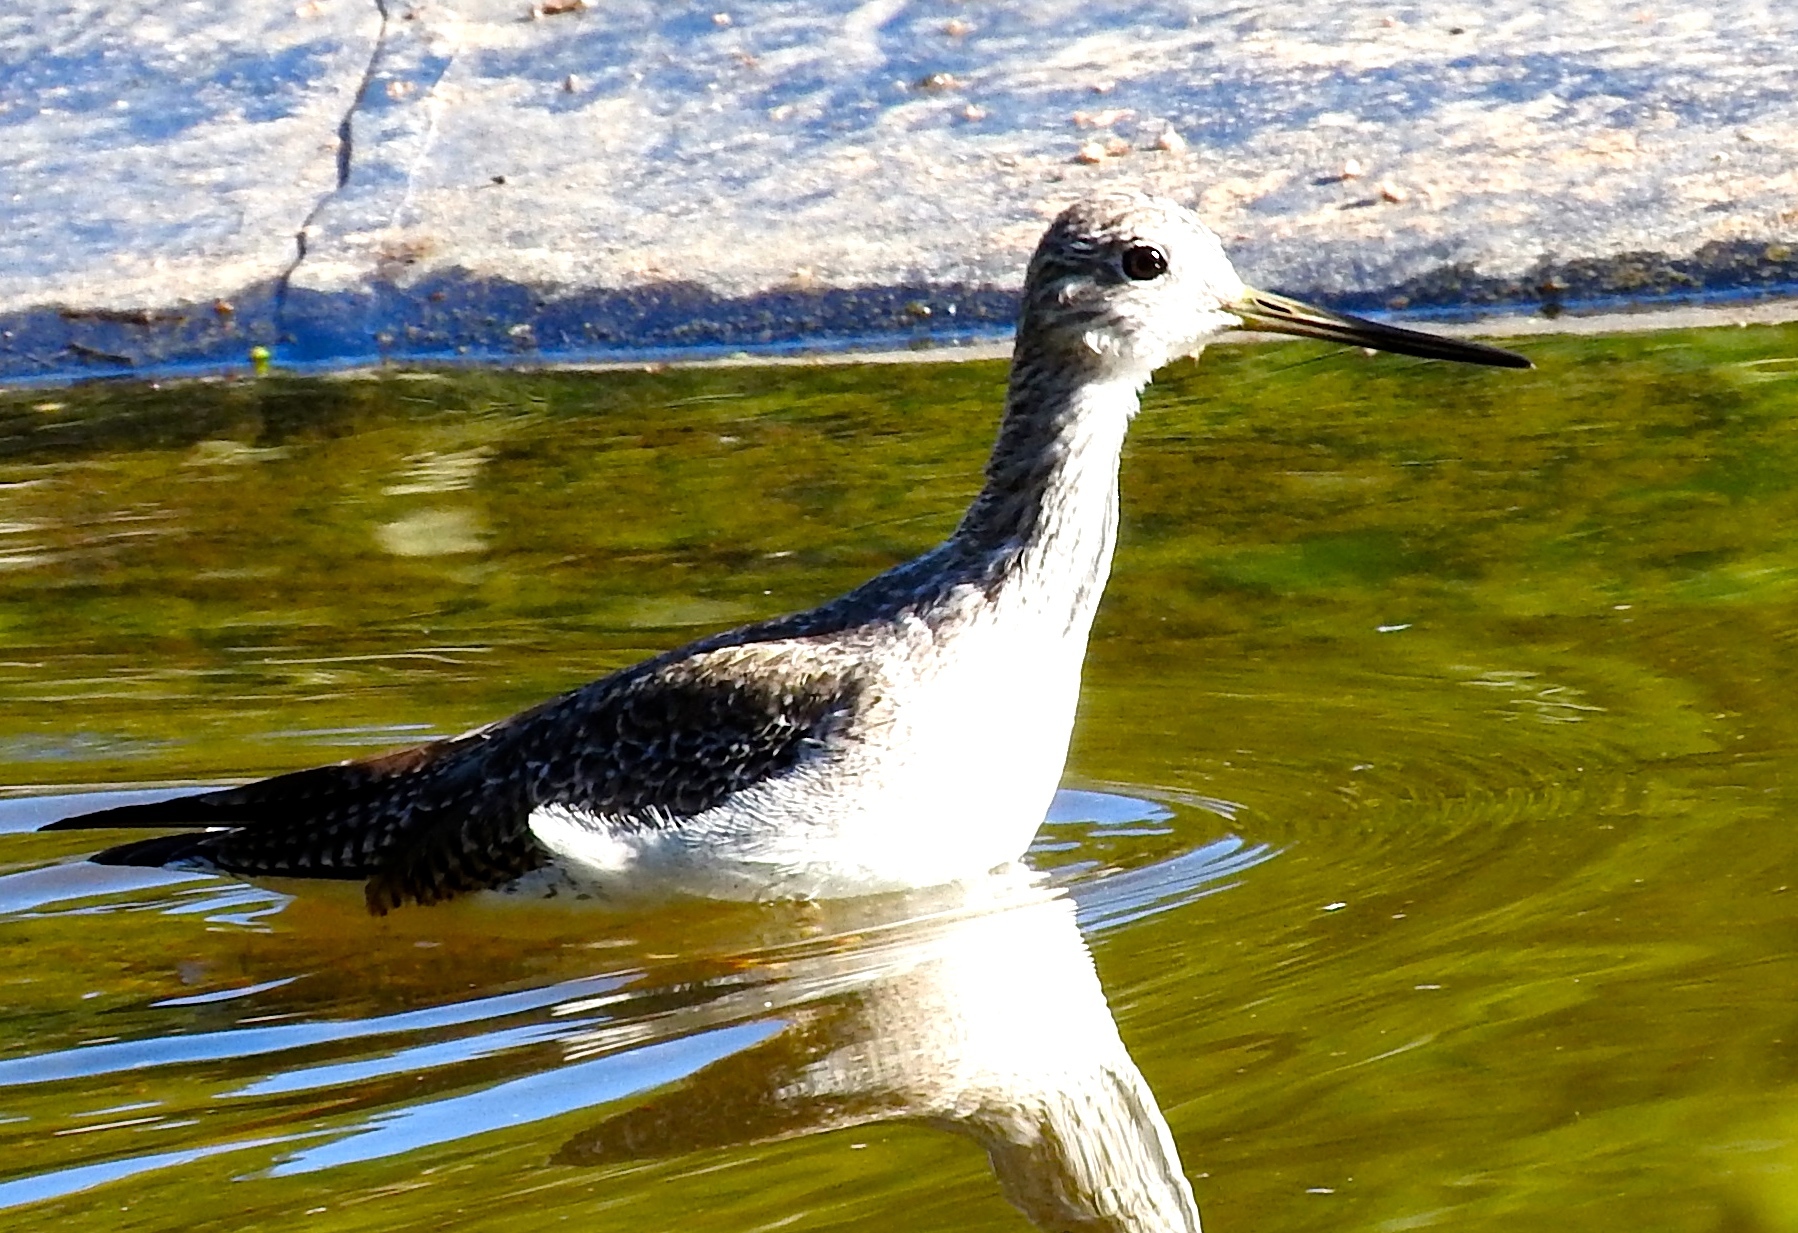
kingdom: Animalia
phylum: Chordata
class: Aves
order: Charadriiformes
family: Scolopacidae
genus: Tringa
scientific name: Tringa melanoleuca
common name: Greater yellowlegs
